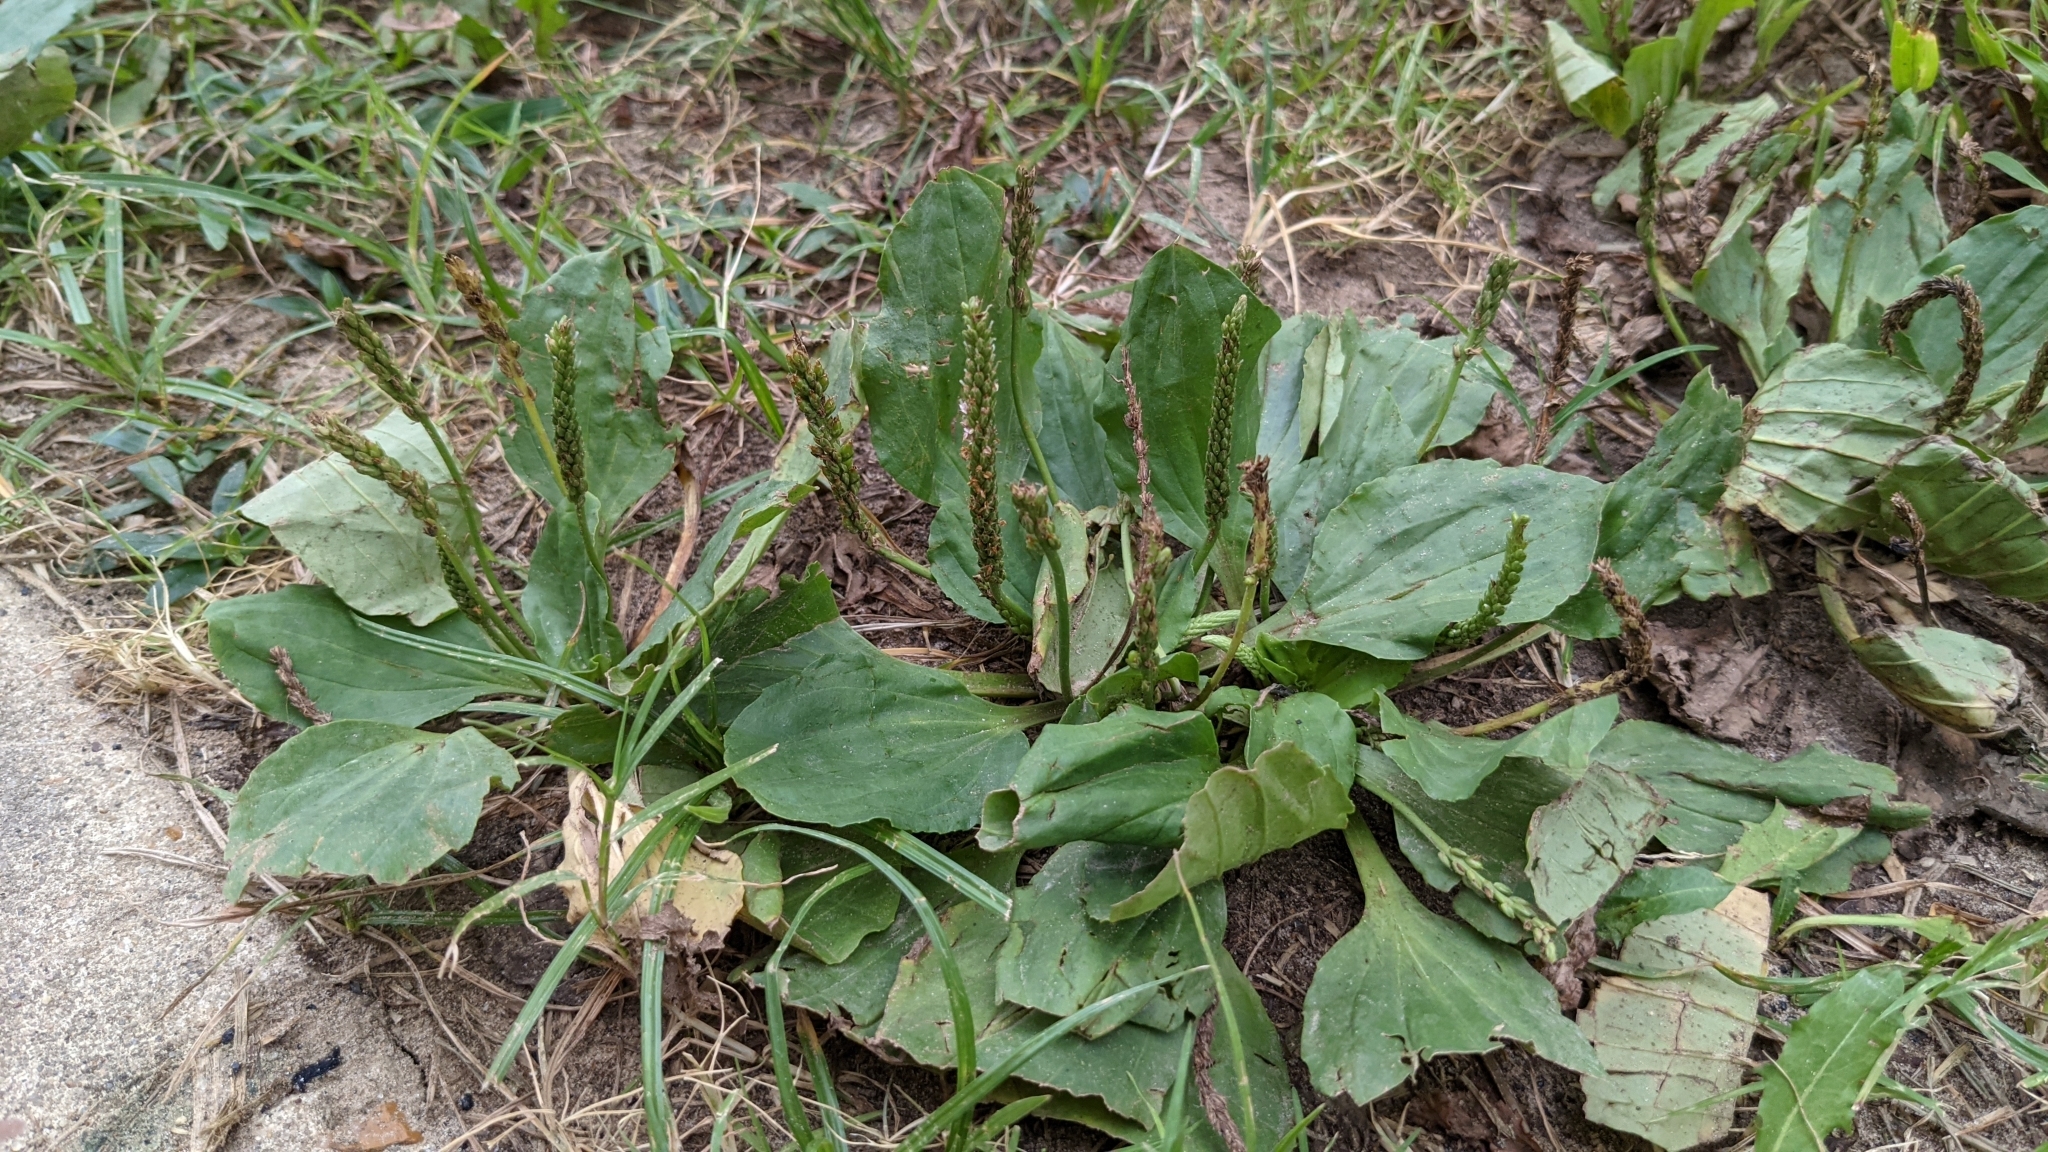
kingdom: Plantae
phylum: Tracheophyta
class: Magnoliopsida
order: Lamiales
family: Plantaginaceae
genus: Plantago
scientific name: Plantago major
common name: Common plantain
